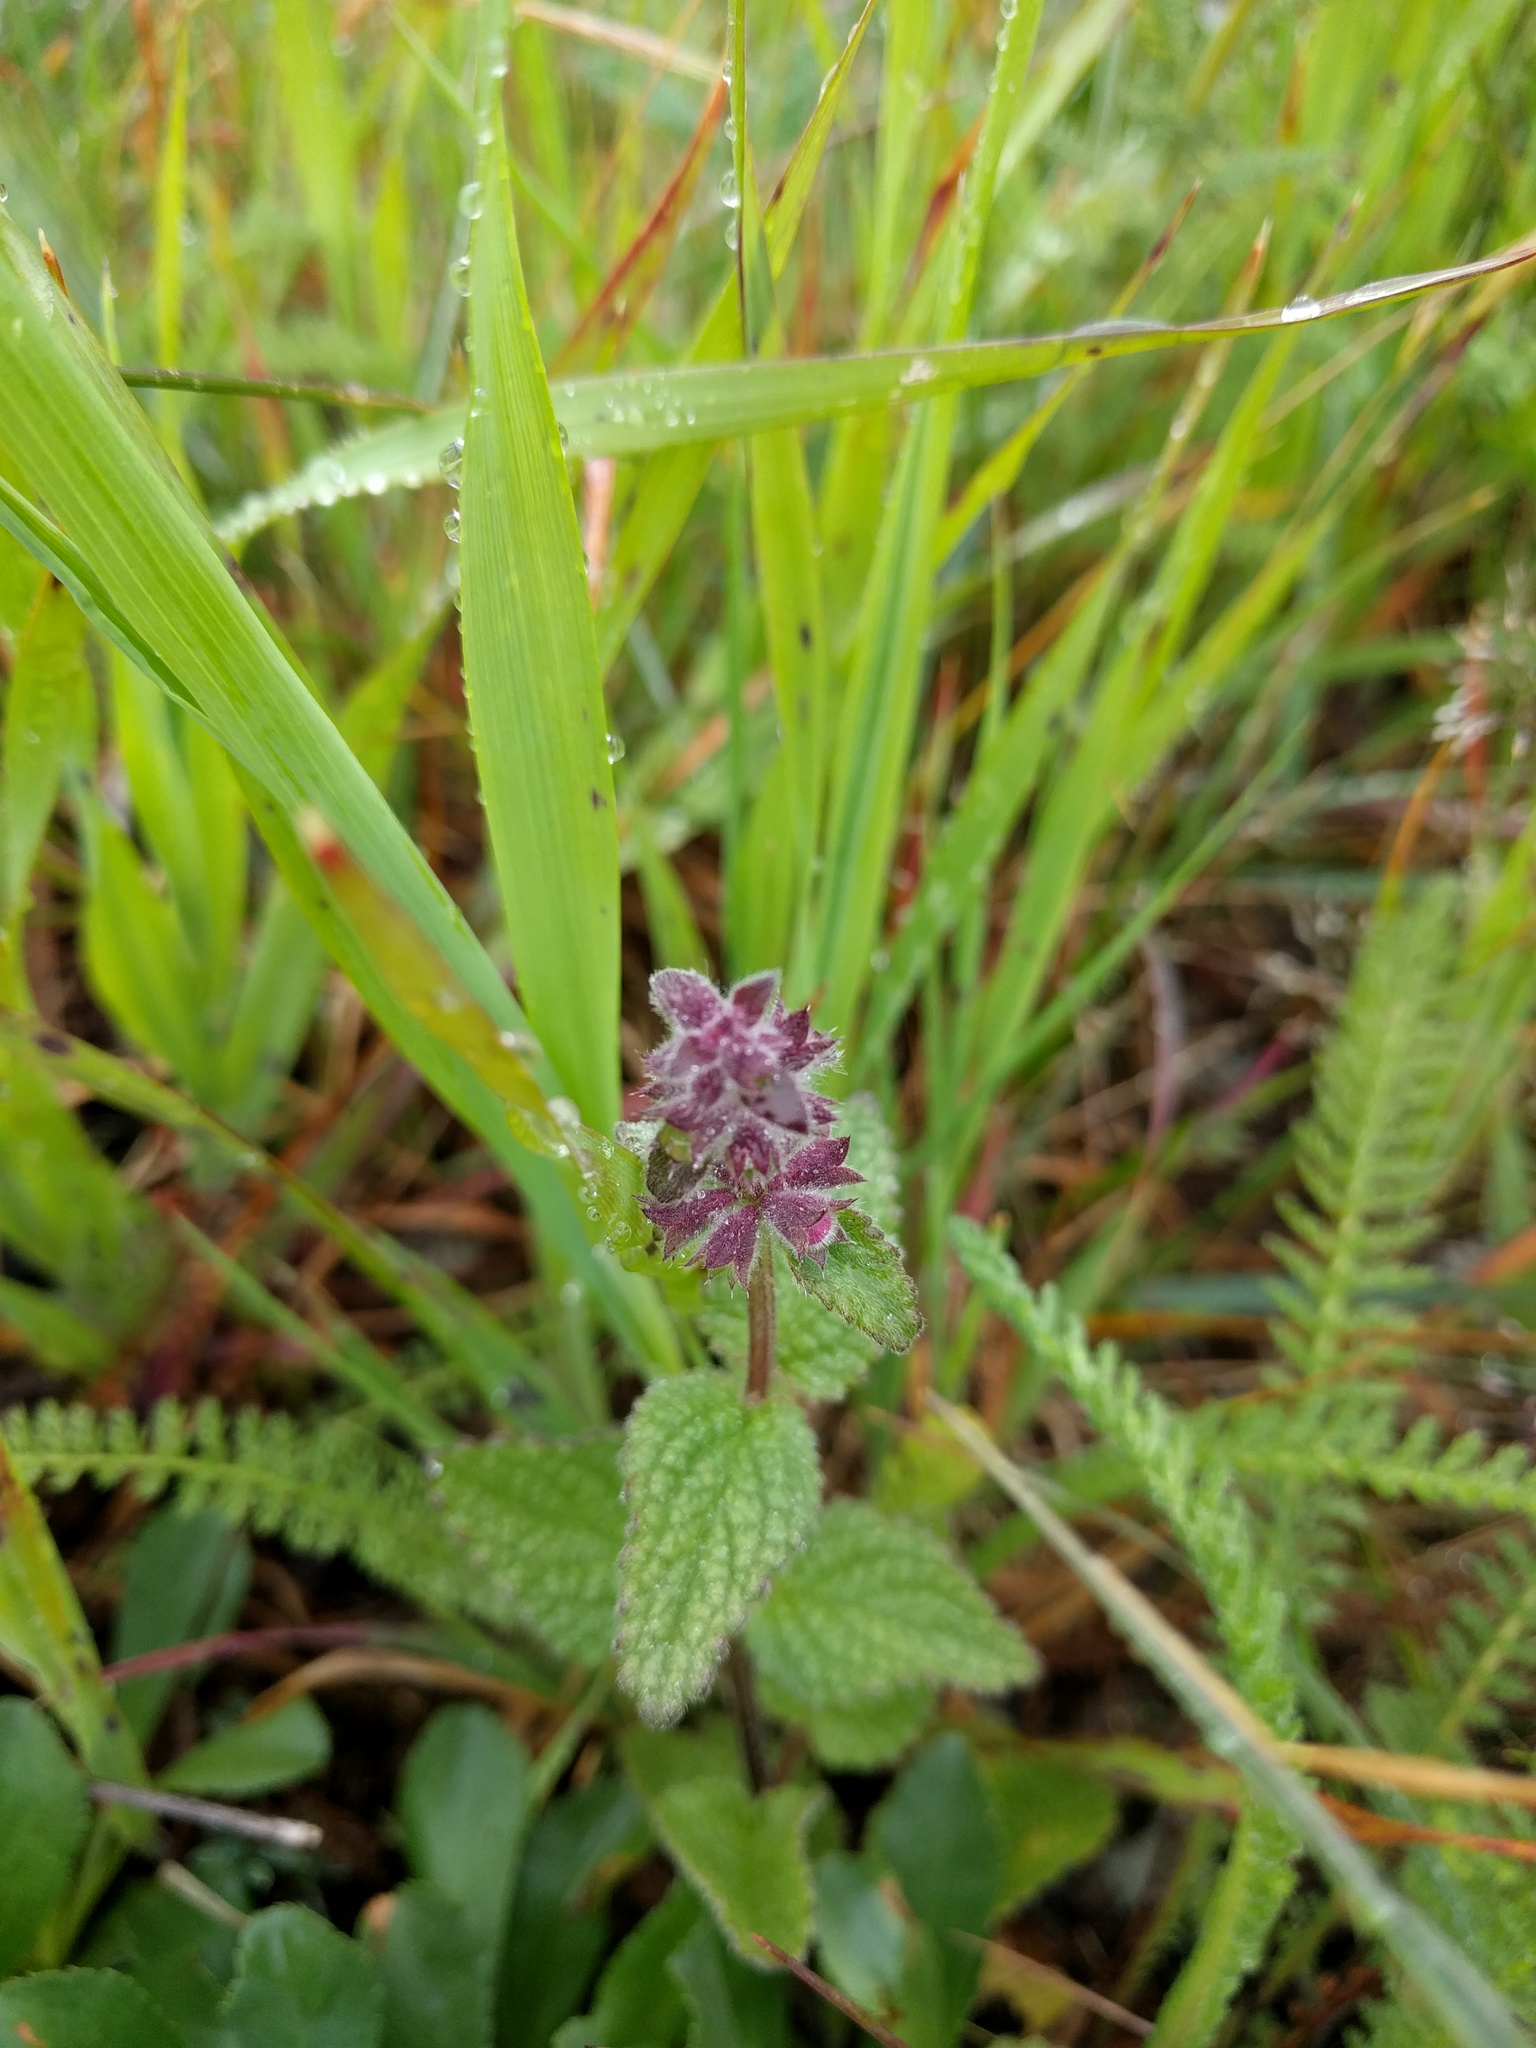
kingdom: Plantae
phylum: Tracheophyta
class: Magnoliopsida
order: Lamiales
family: Lamiaceae
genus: Stachys
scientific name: Stachys bullata
